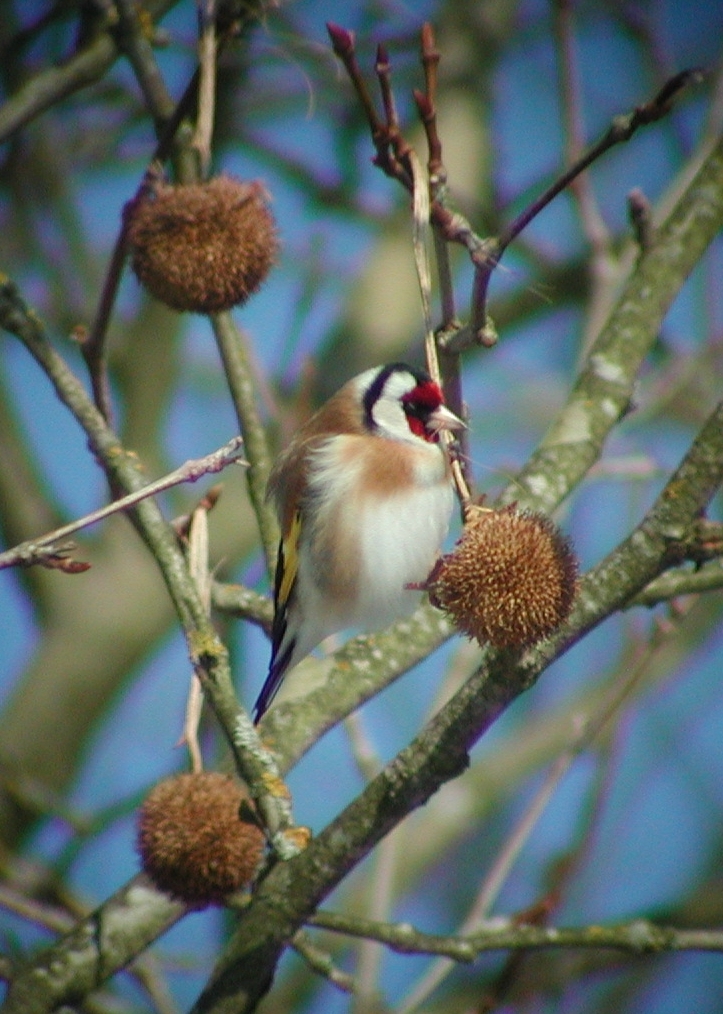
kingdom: Animalia
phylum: Chordata
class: Aves
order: Passeriformes
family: Fringillidae
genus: Carduelis
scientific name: Carduelis carduelis
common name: European goldfinch
